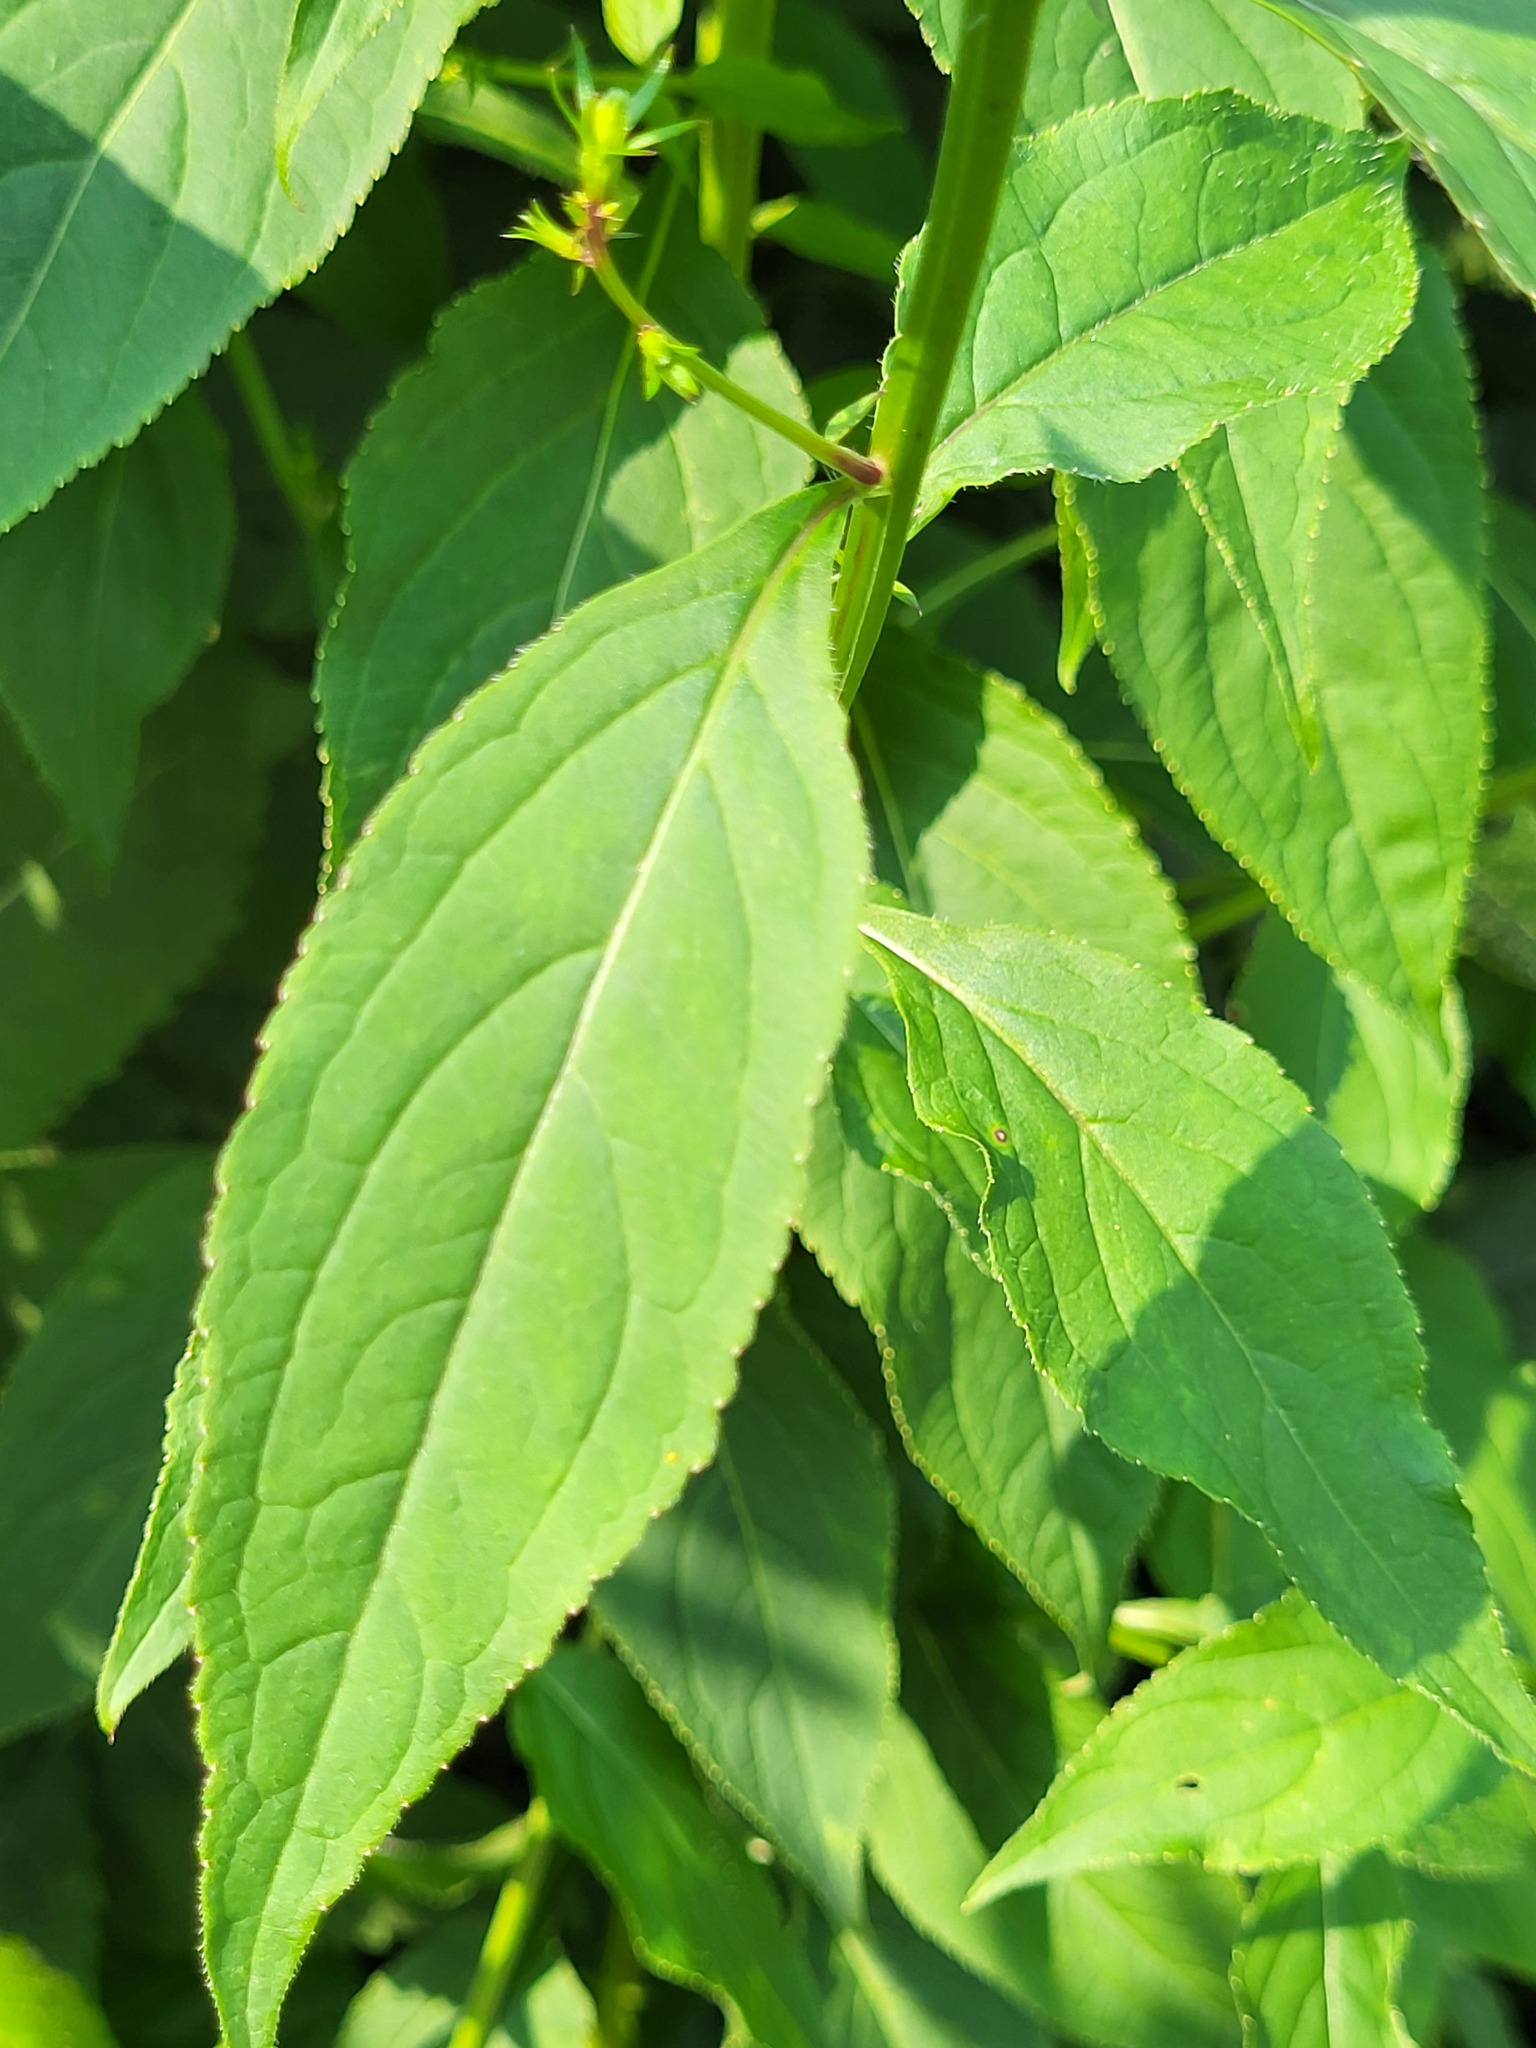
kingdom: Plantae
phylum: Tracheophyta
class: Magnoliopsida
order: Asterales
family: Campanulaceae
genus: Campanulastrum
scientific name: Campanulastrum americanum
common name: American bellflower
